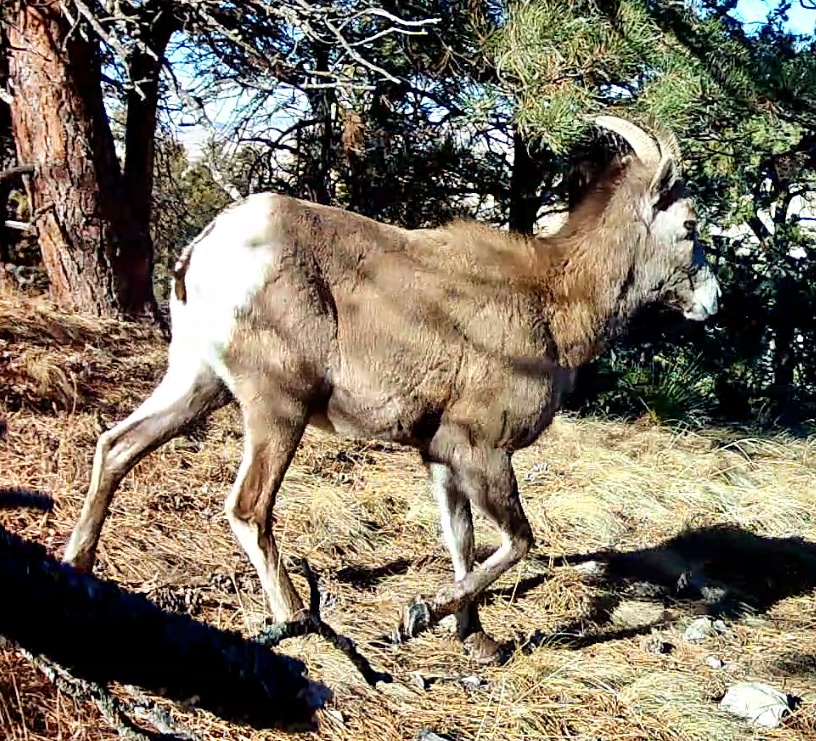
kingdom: Animalia
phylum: Chordata
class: Mammalia
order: Artiodactyla
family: Bovidae
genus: Ovis
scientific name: Ovis canadensis
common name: Bighorn sheep
